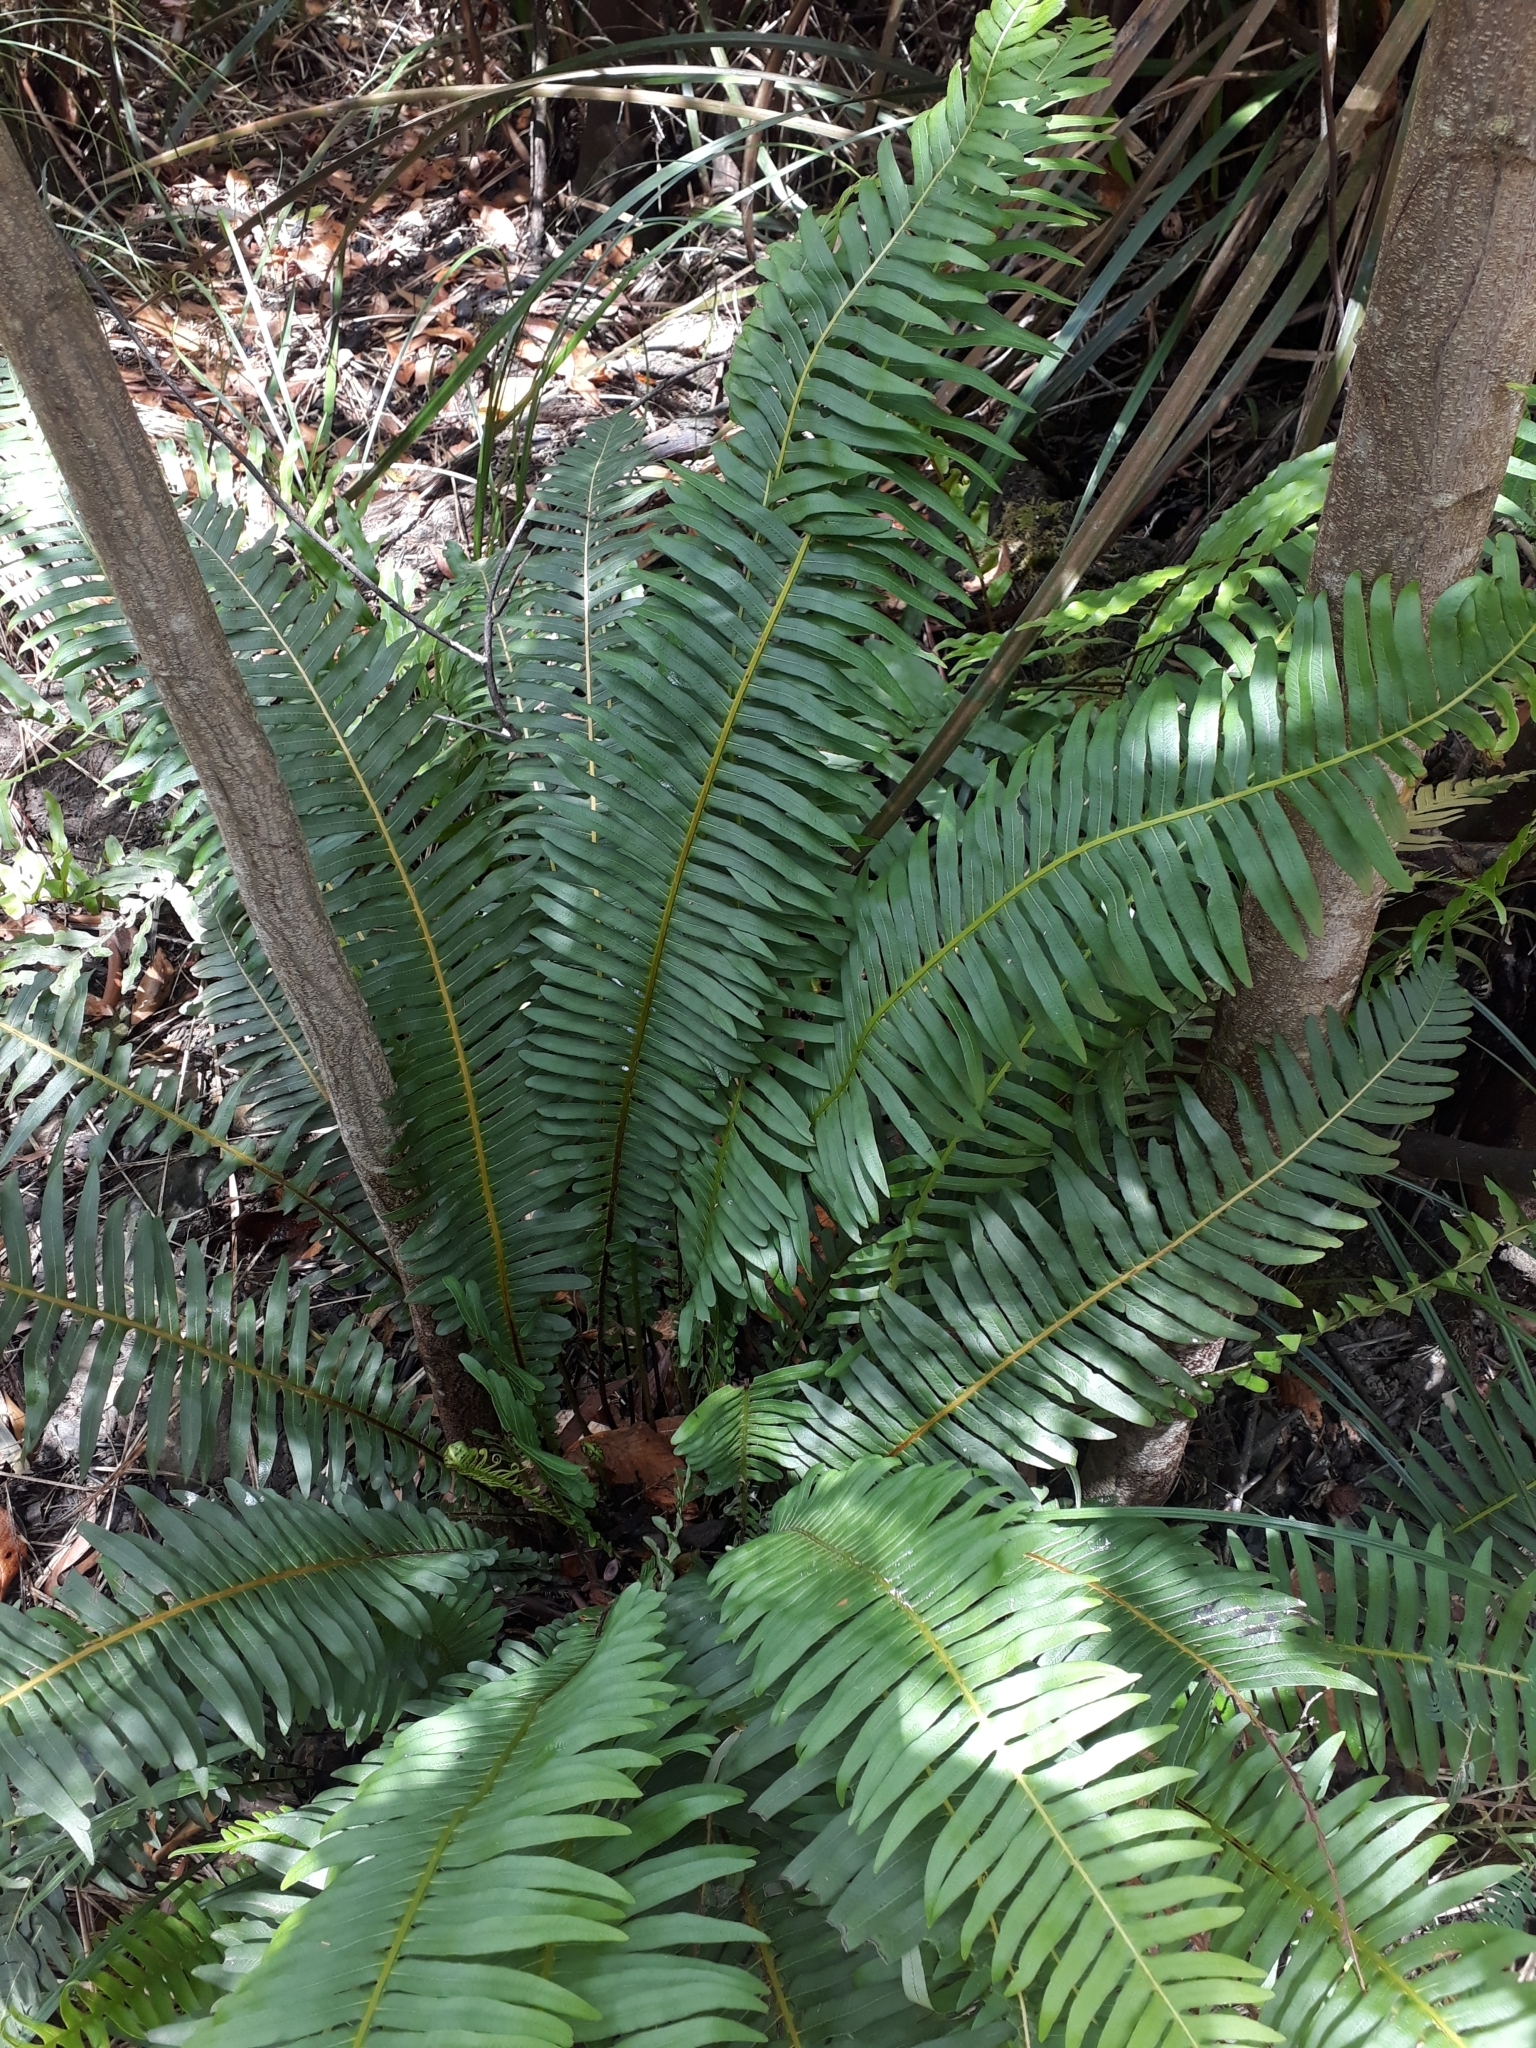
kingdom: Plantae
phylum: Tracheophyta
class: Polypodiopsida
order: Polypodiales
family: Blechnaceae
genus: Lomaria
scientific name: Lomaria nuda
